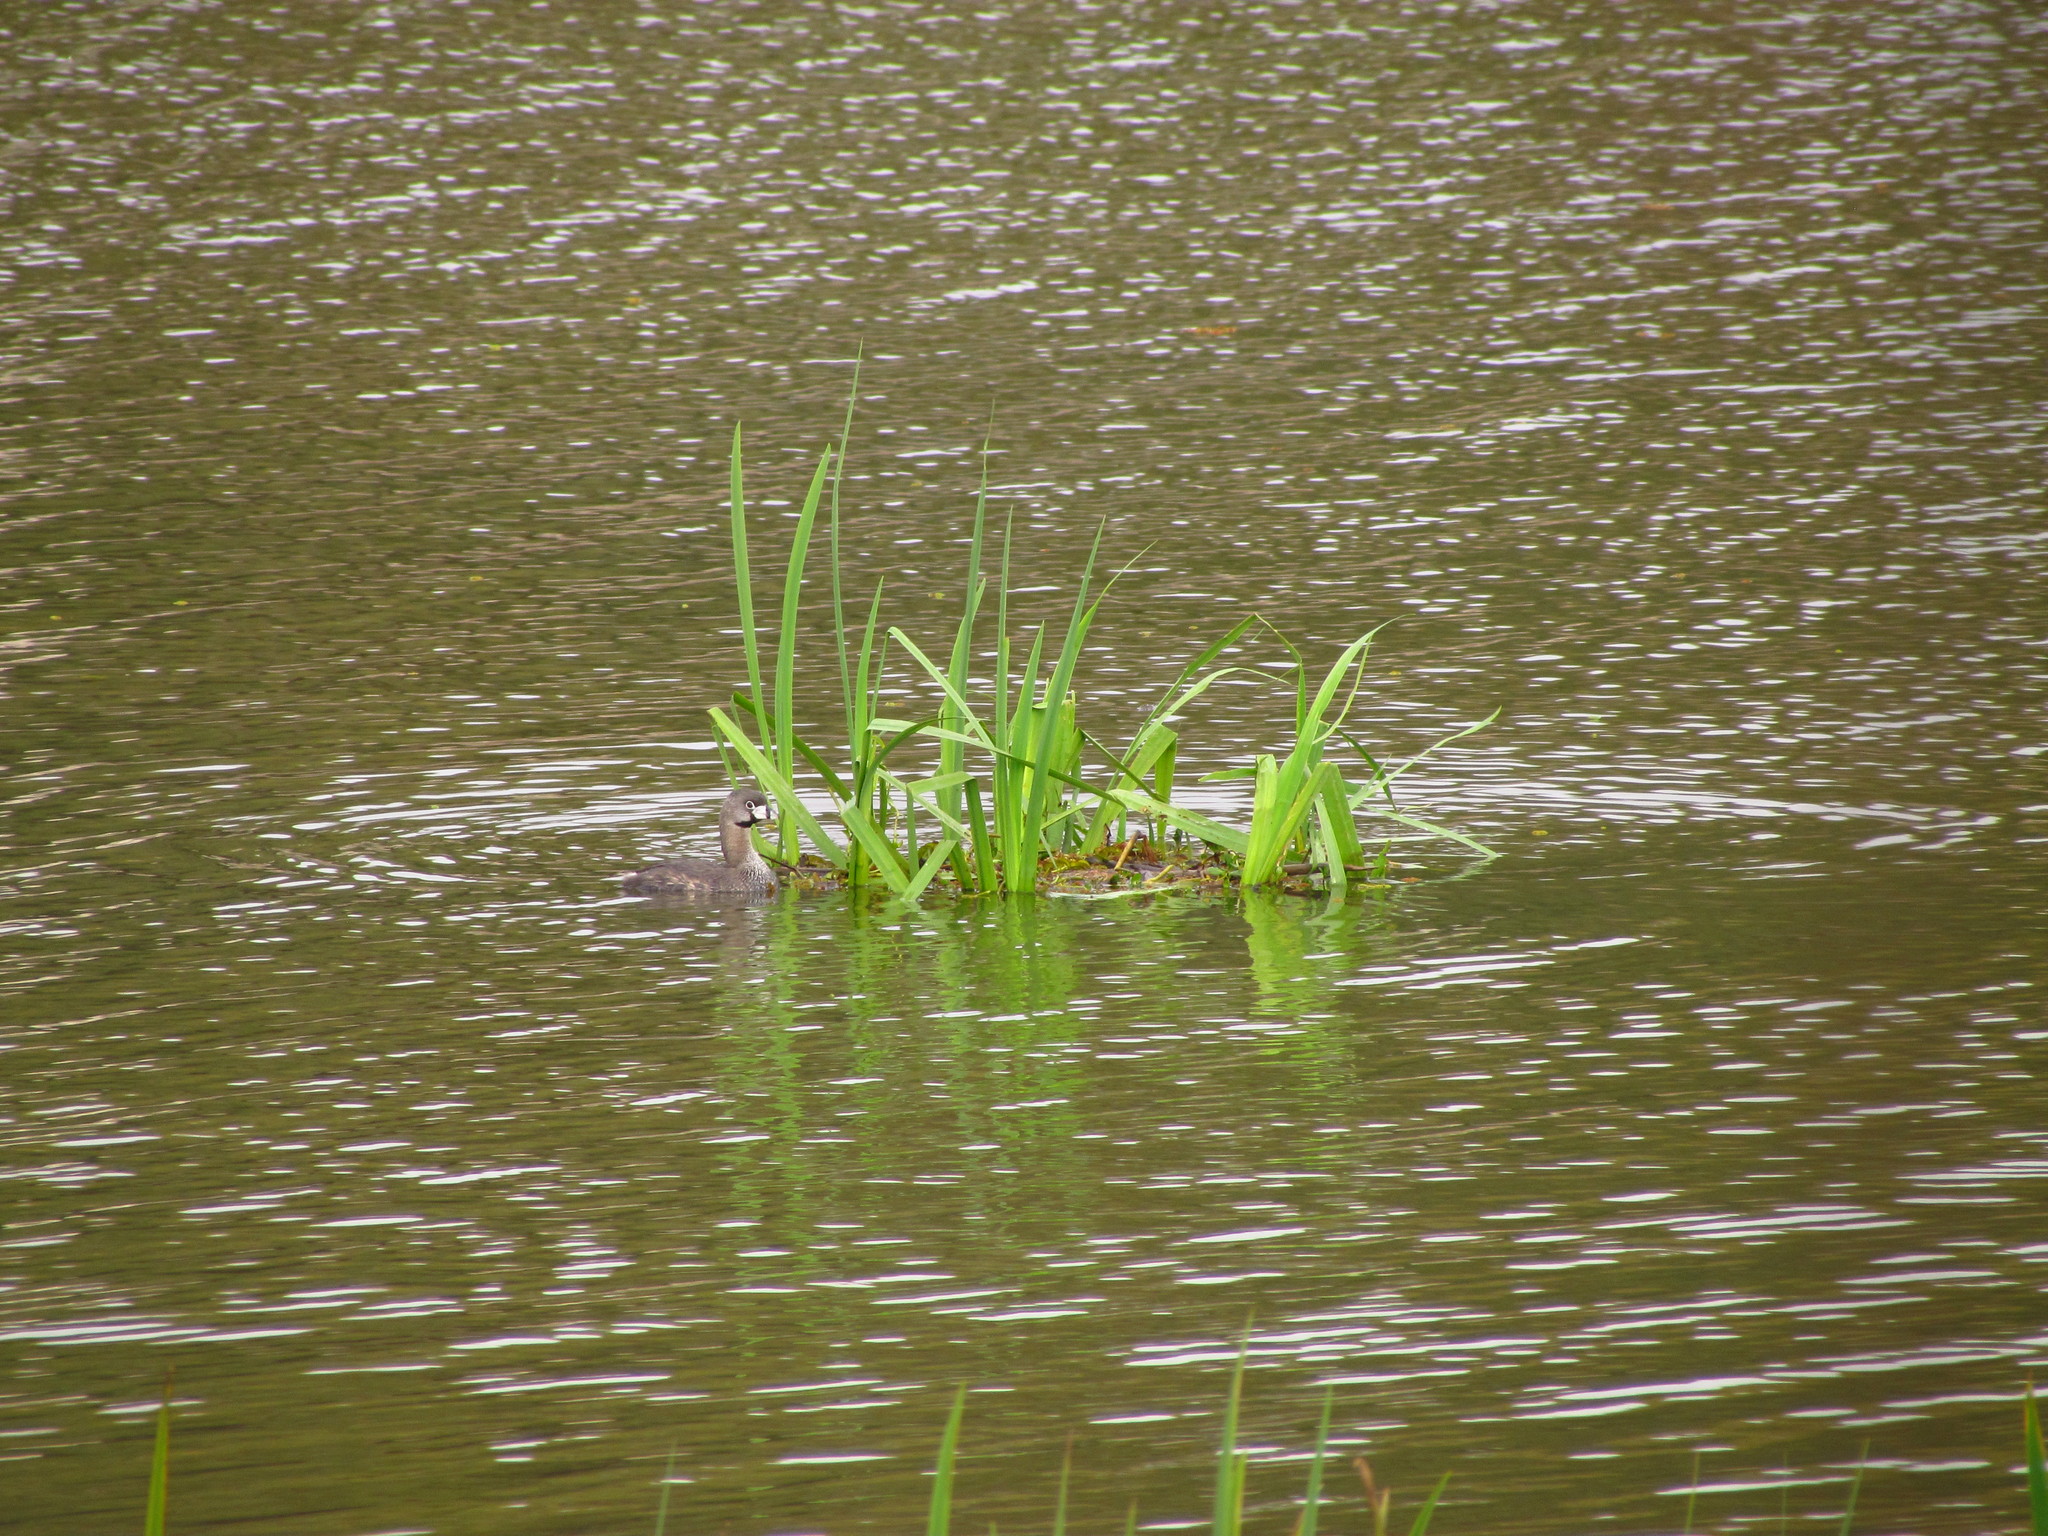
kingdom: Animalia
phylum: Chordata
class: Aves
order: Podicipediformes
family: Podicipedidae
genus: Podilymbus
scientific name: Podilymbus podiceps
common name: Pied-billed grebe
